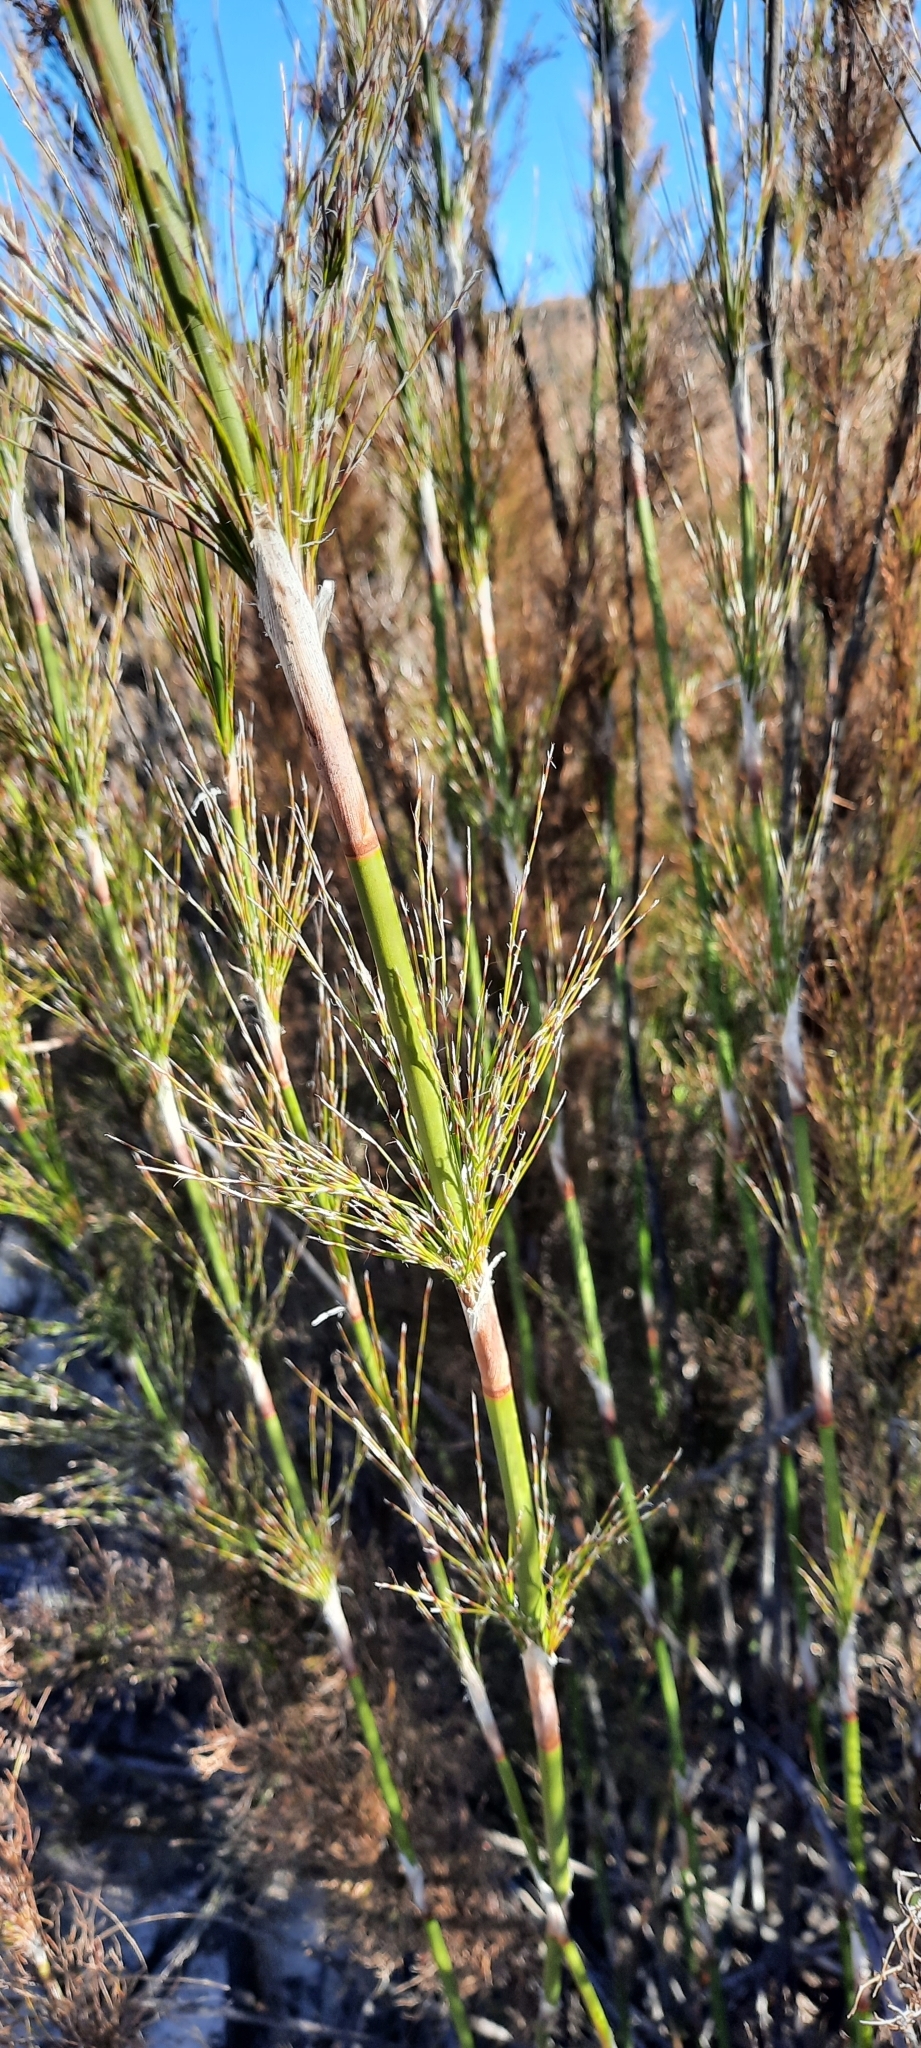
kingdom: Plantae
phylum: Tracheophyta
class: Liliopsida
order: Poales
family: Restionaceae
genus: Elegia
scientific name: Elegia capensis
